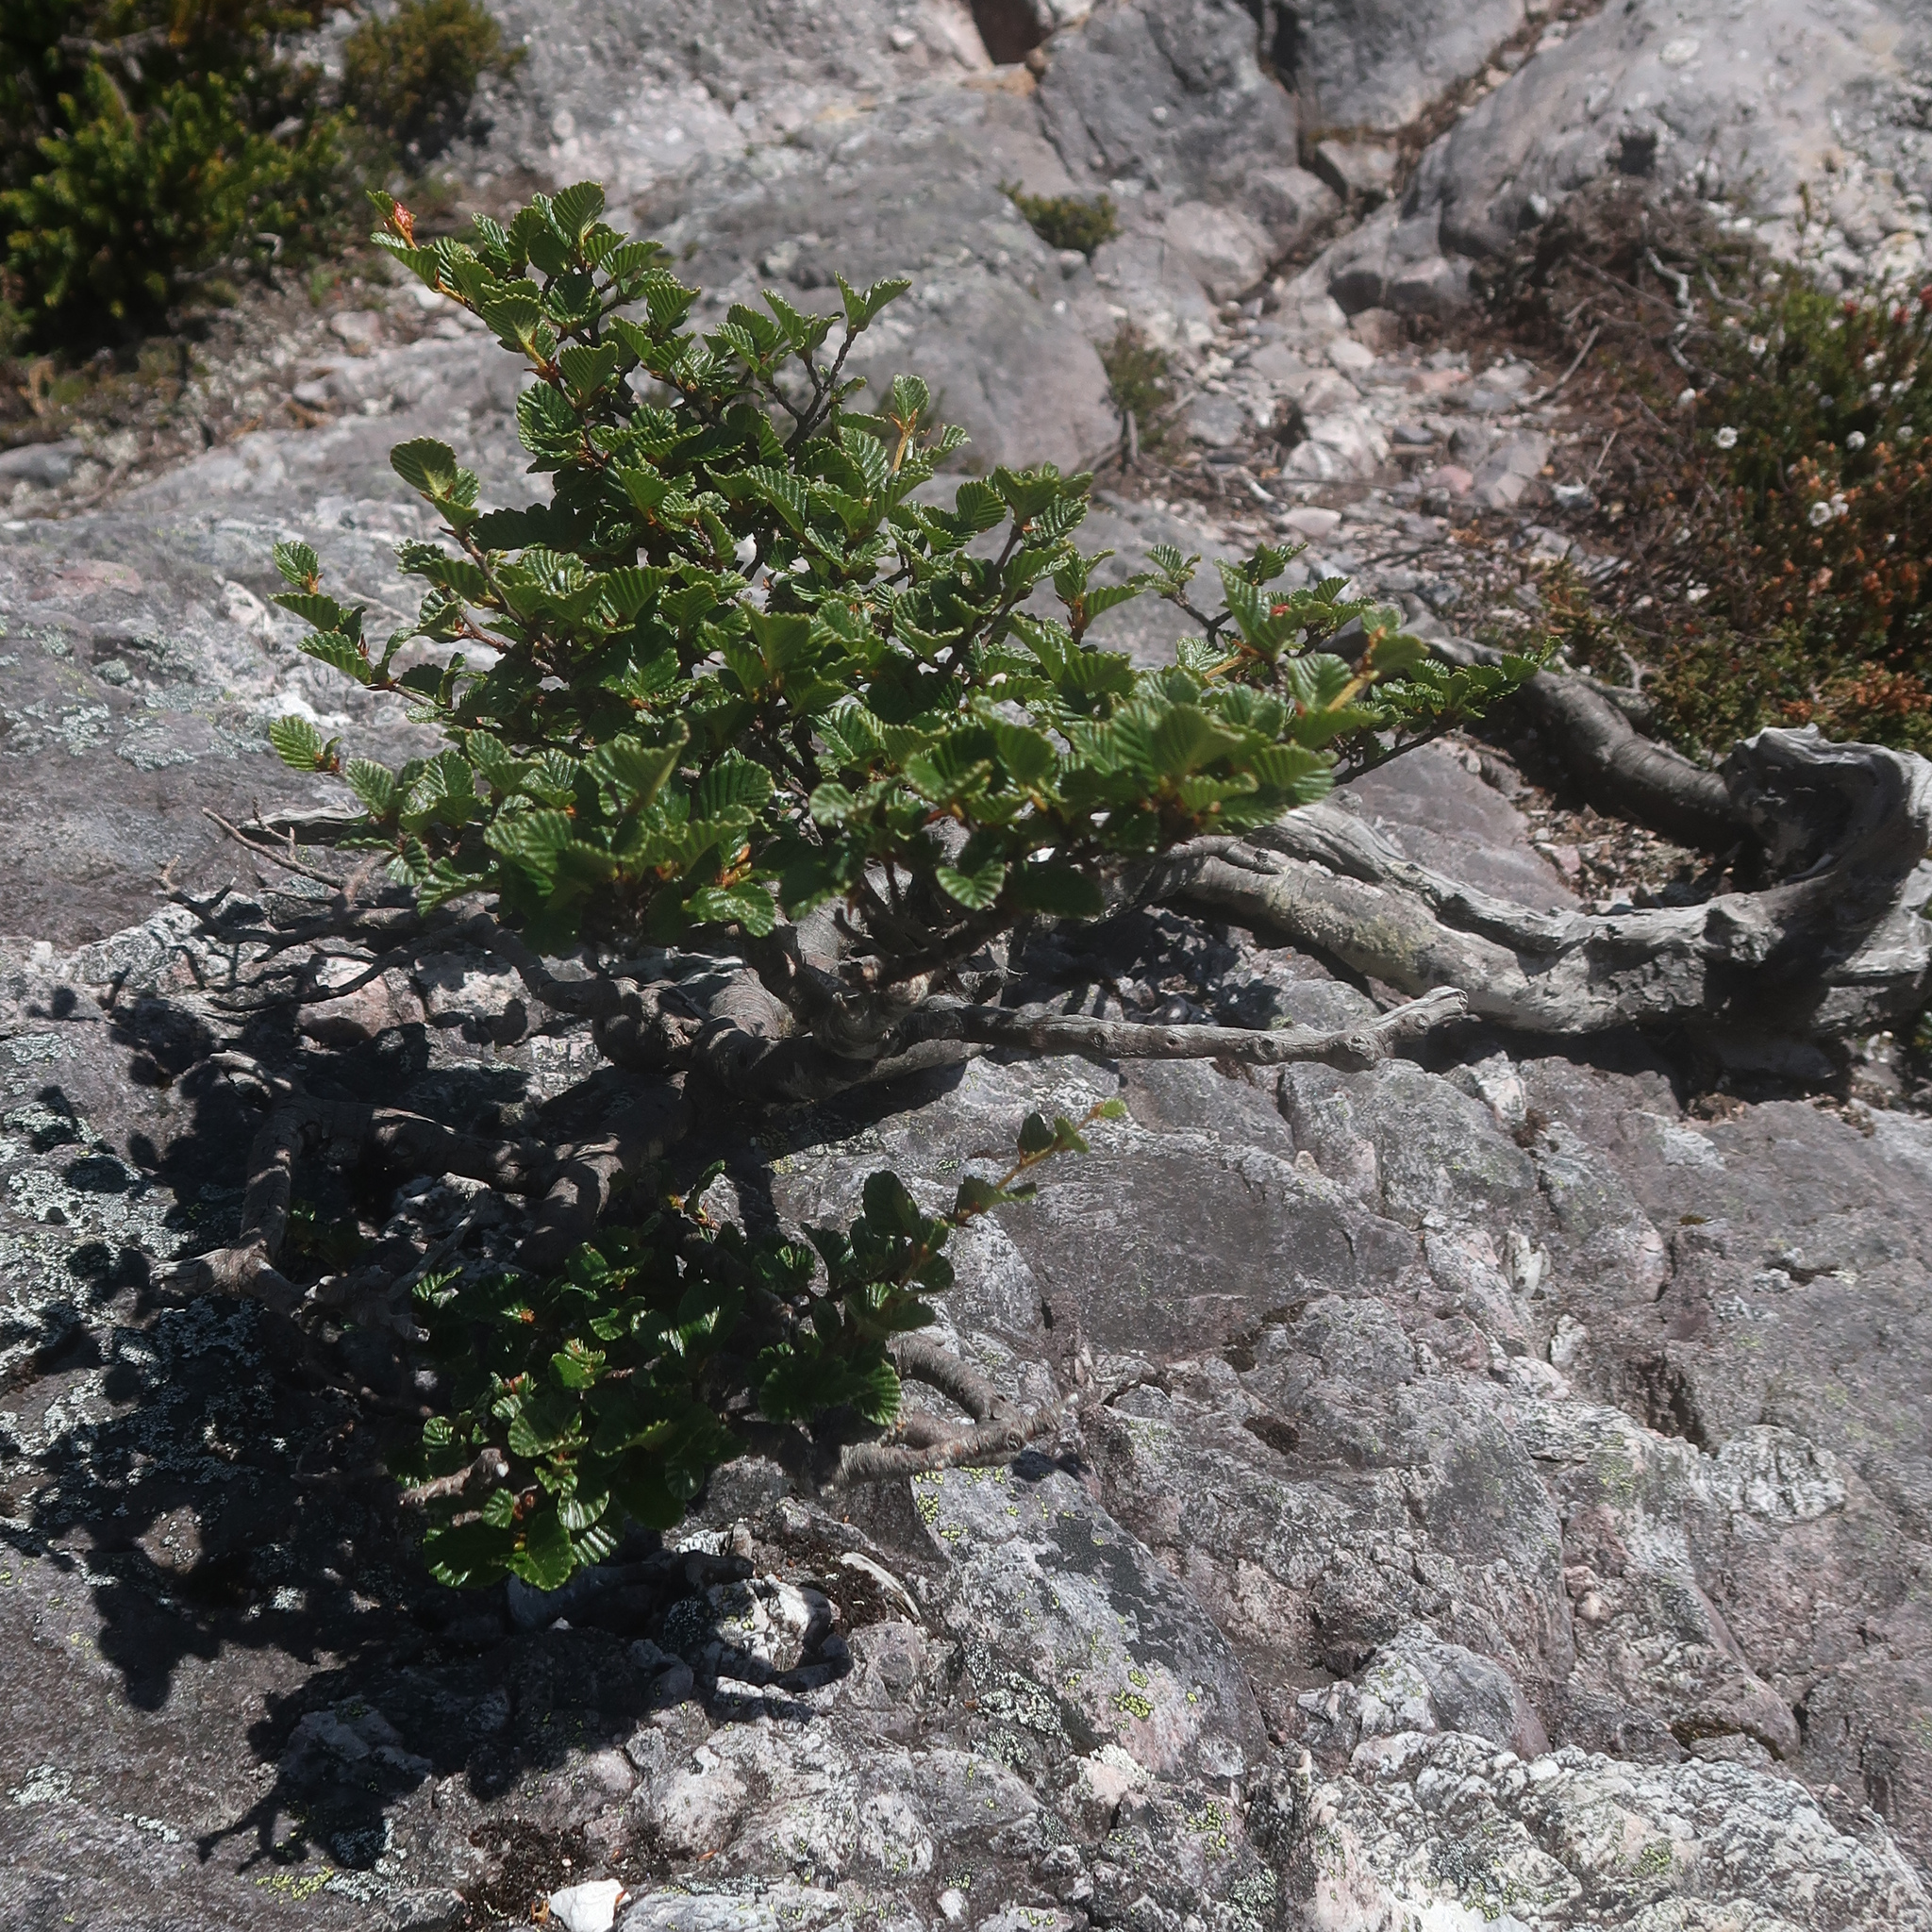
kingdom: Plantae
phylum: Tracheophyta
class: Magnoliopsida
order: Fagales
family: Nothofagaceae
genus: Nothofagus
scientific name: Nothofagus gunnii
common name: Tanglefoot
